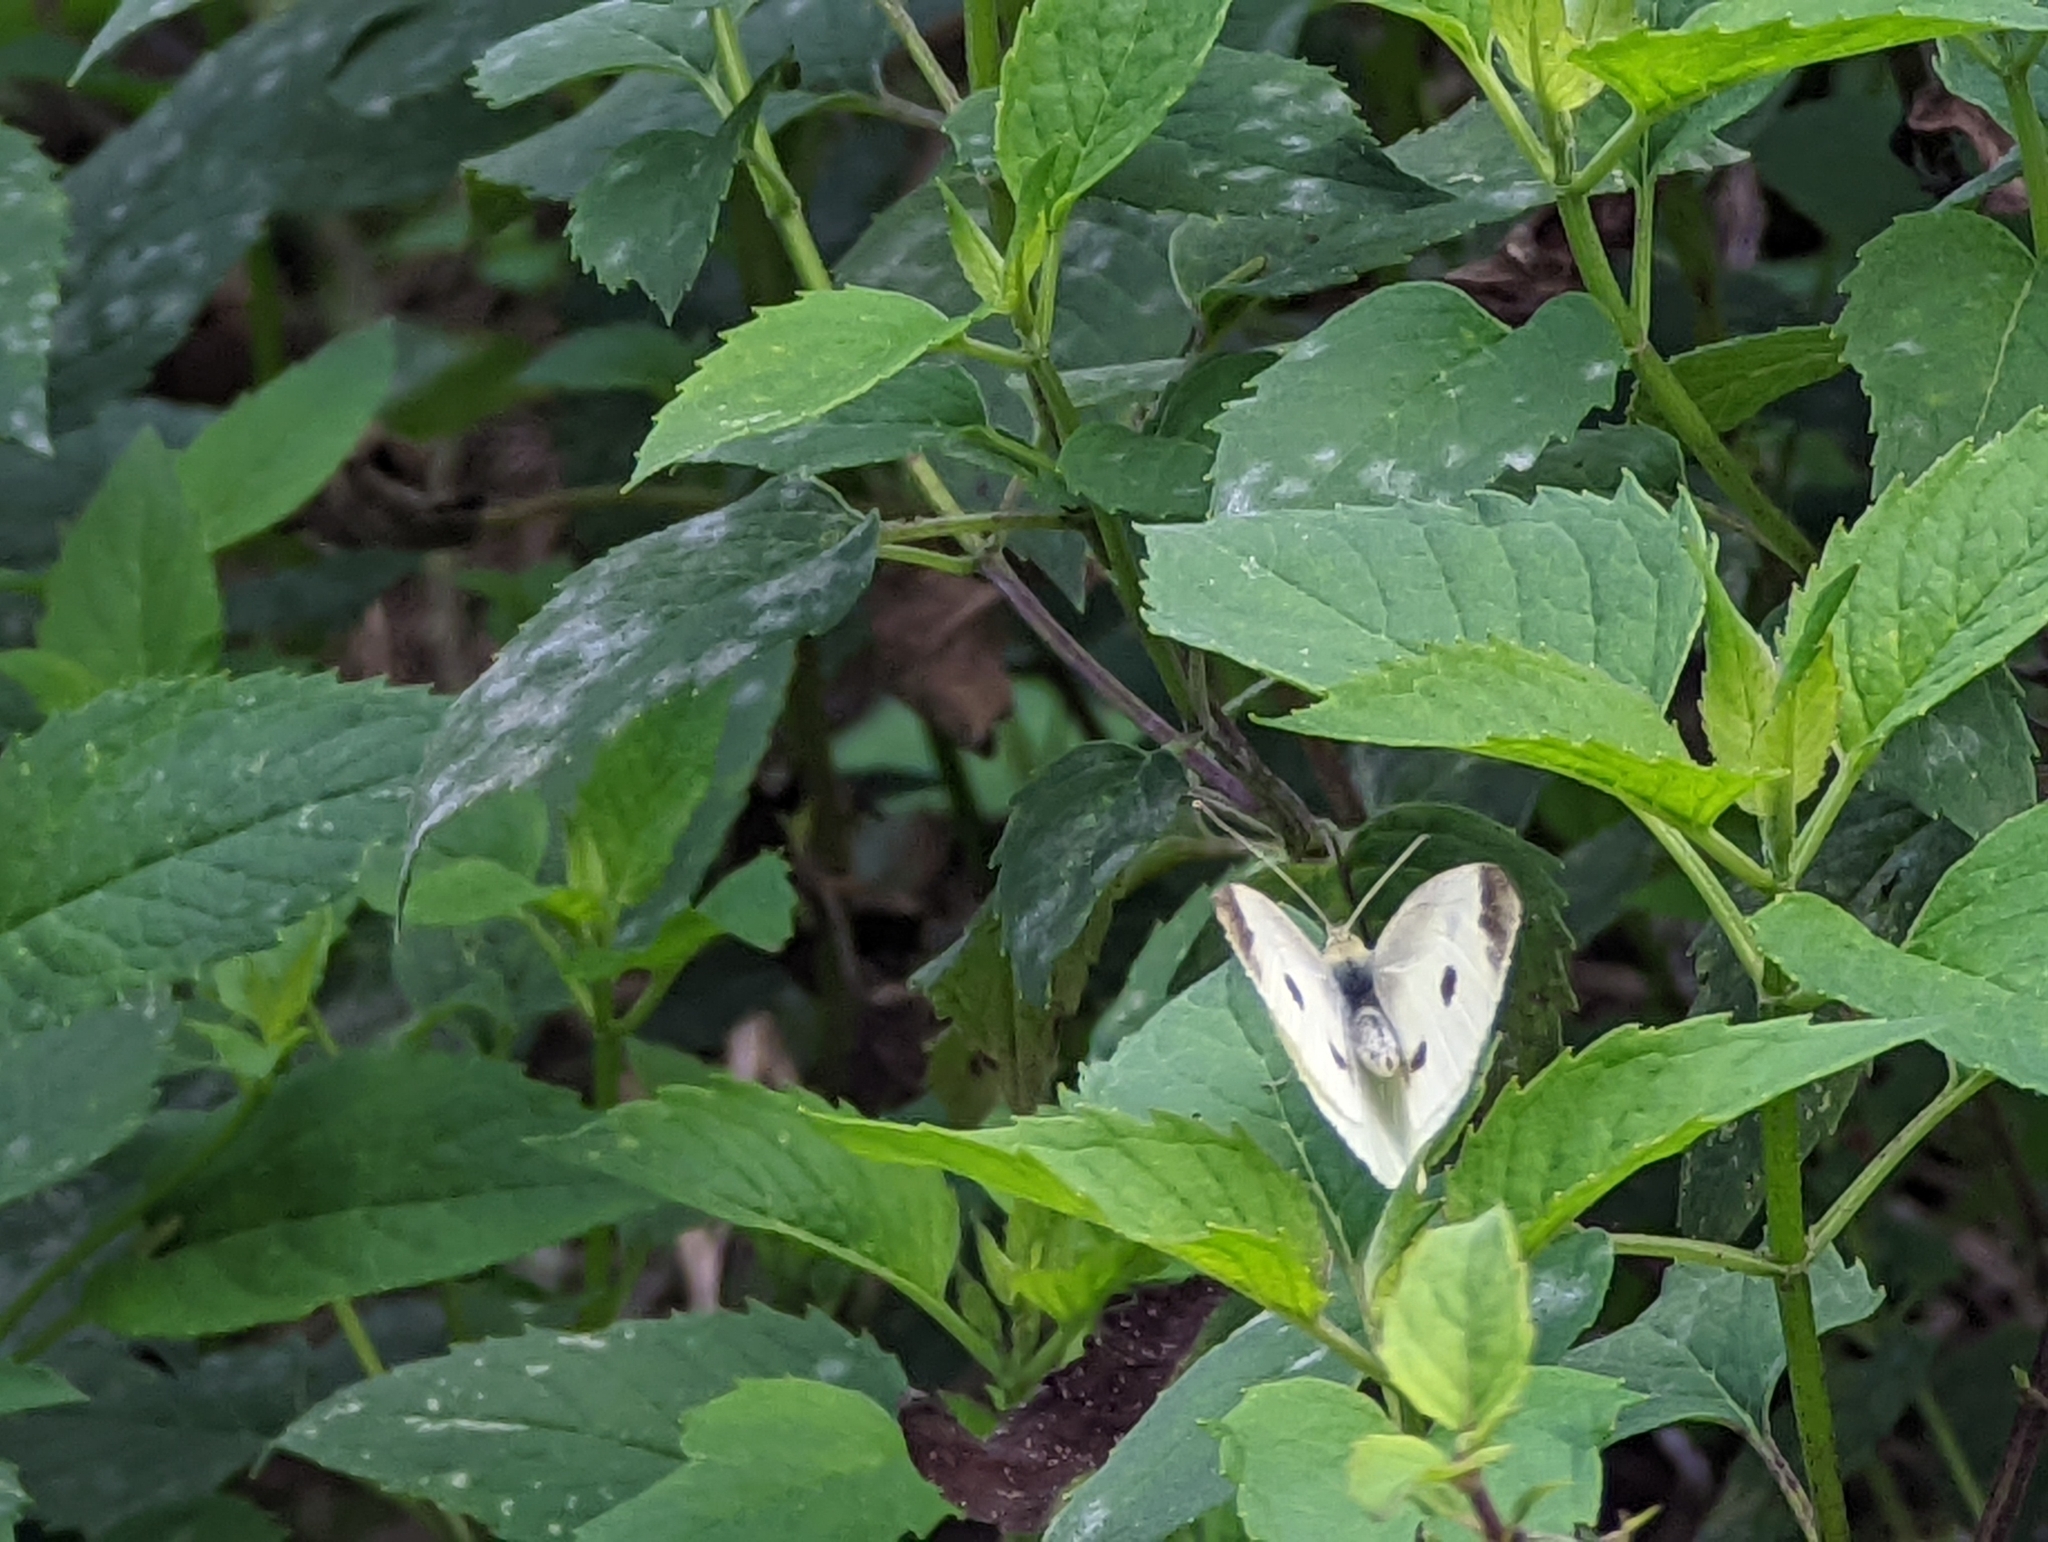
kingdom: Animalia
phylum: Arthropoda
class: Insecta
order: Lepidoptera
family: Pieridae
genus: Pieris
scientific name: Pieris rapae
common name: Small white
